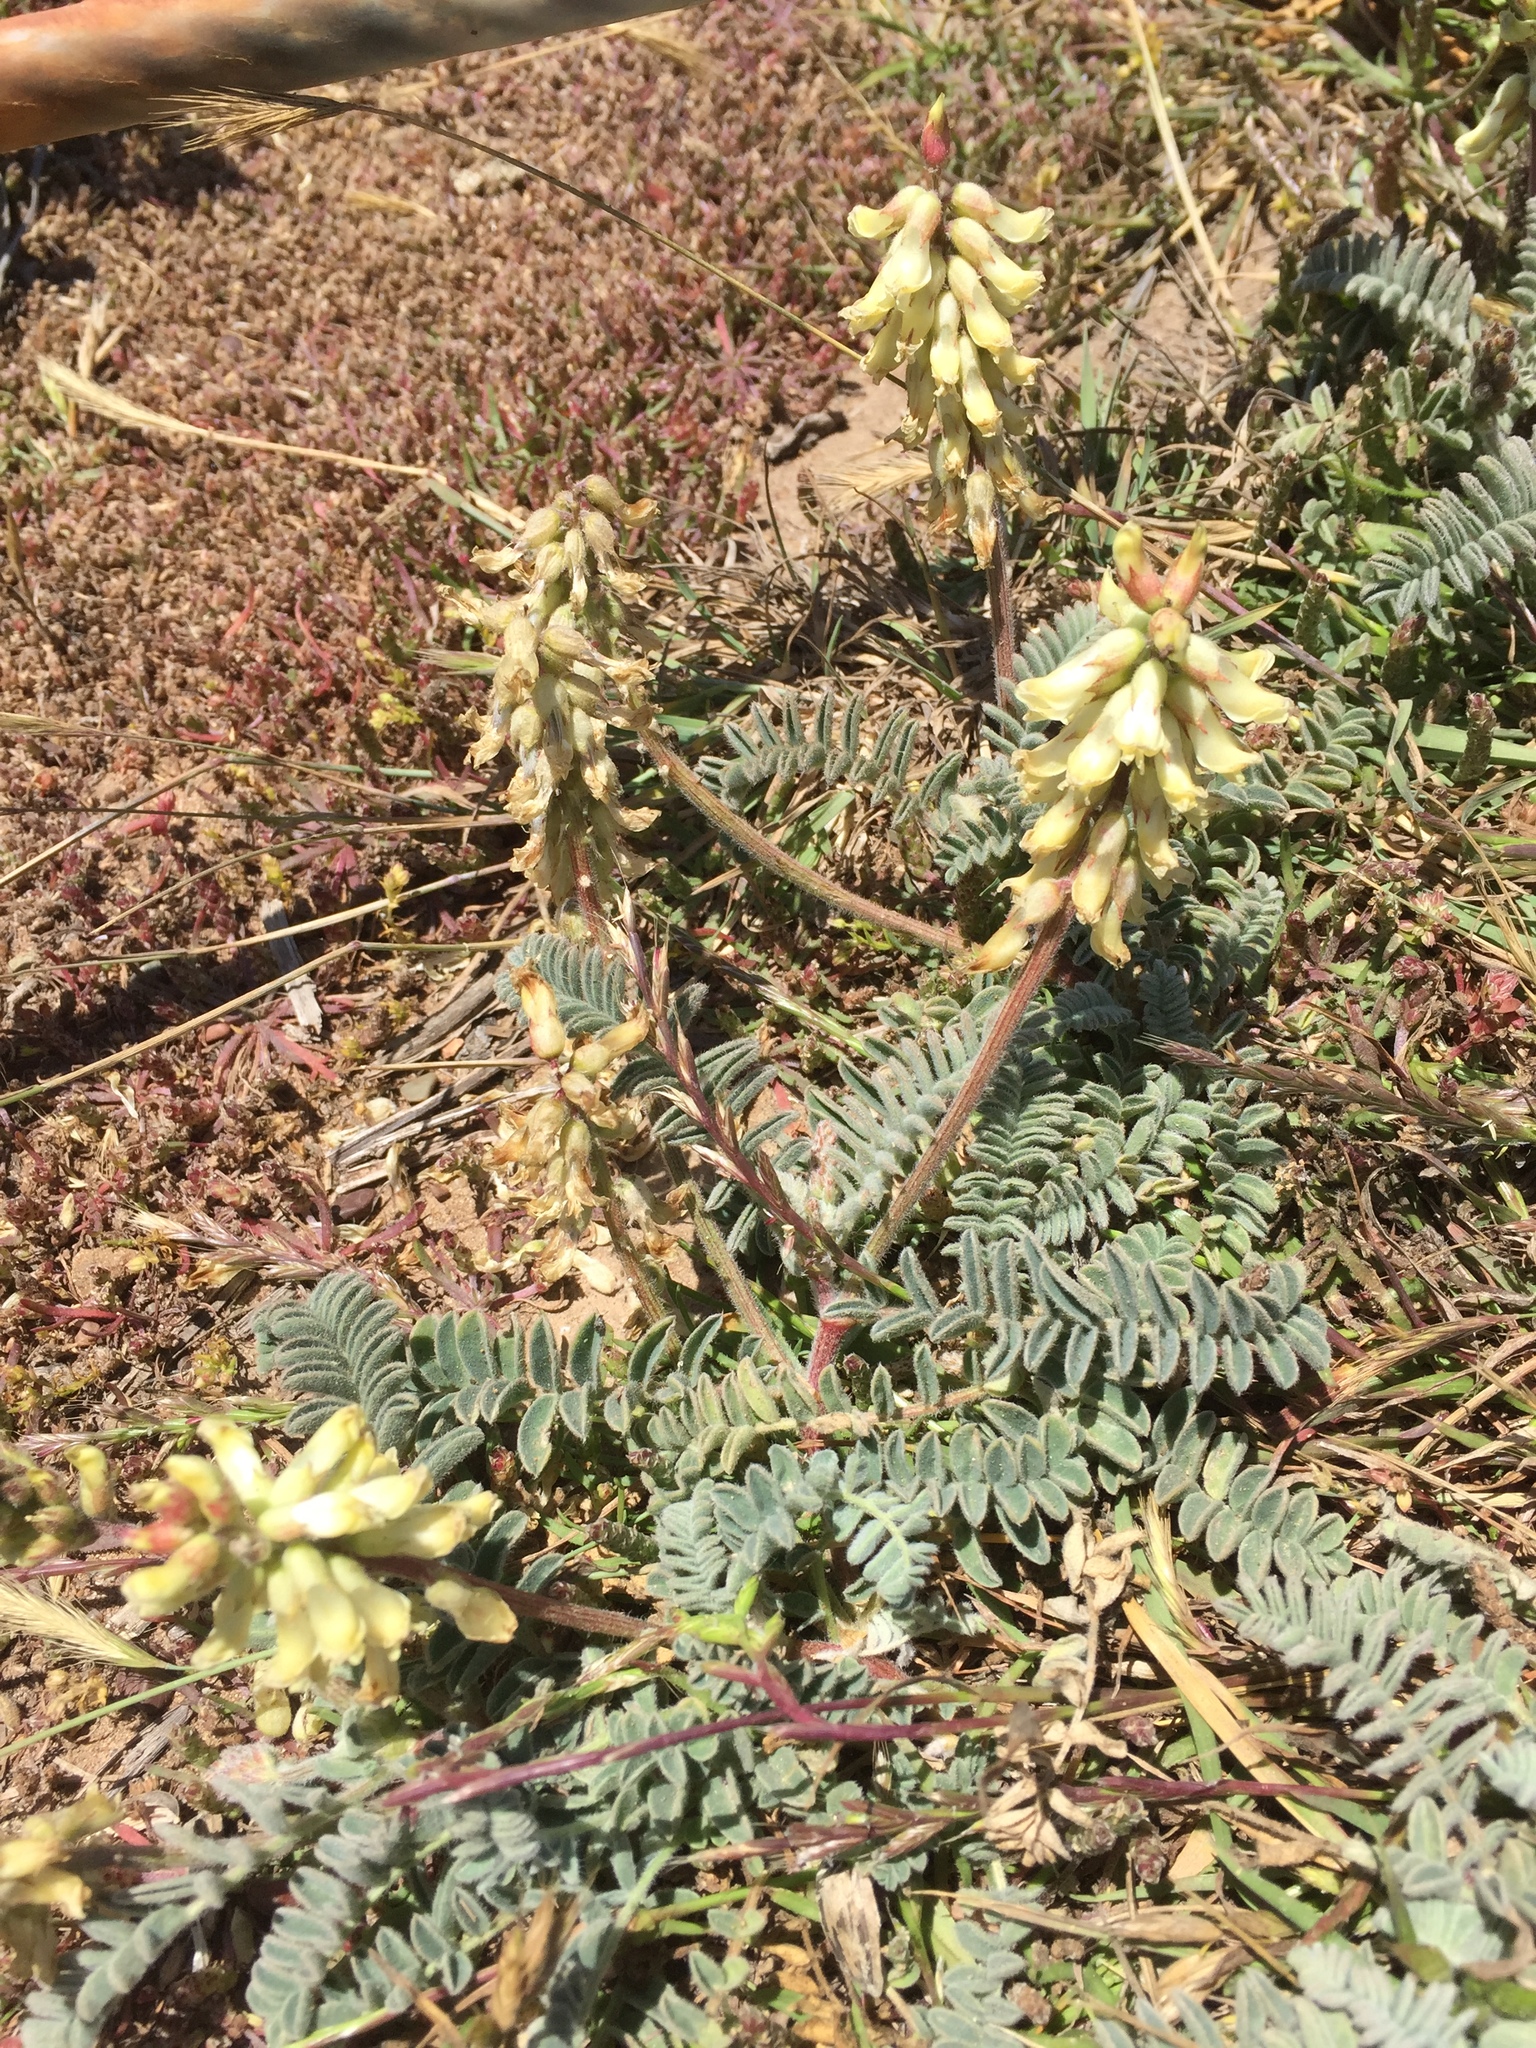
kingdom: Plantae
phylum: Tracheophyta
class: Magnoliopsida
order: Fabales
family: Fabaceae
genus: Astragalus
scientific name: Astragalus nuttallii
